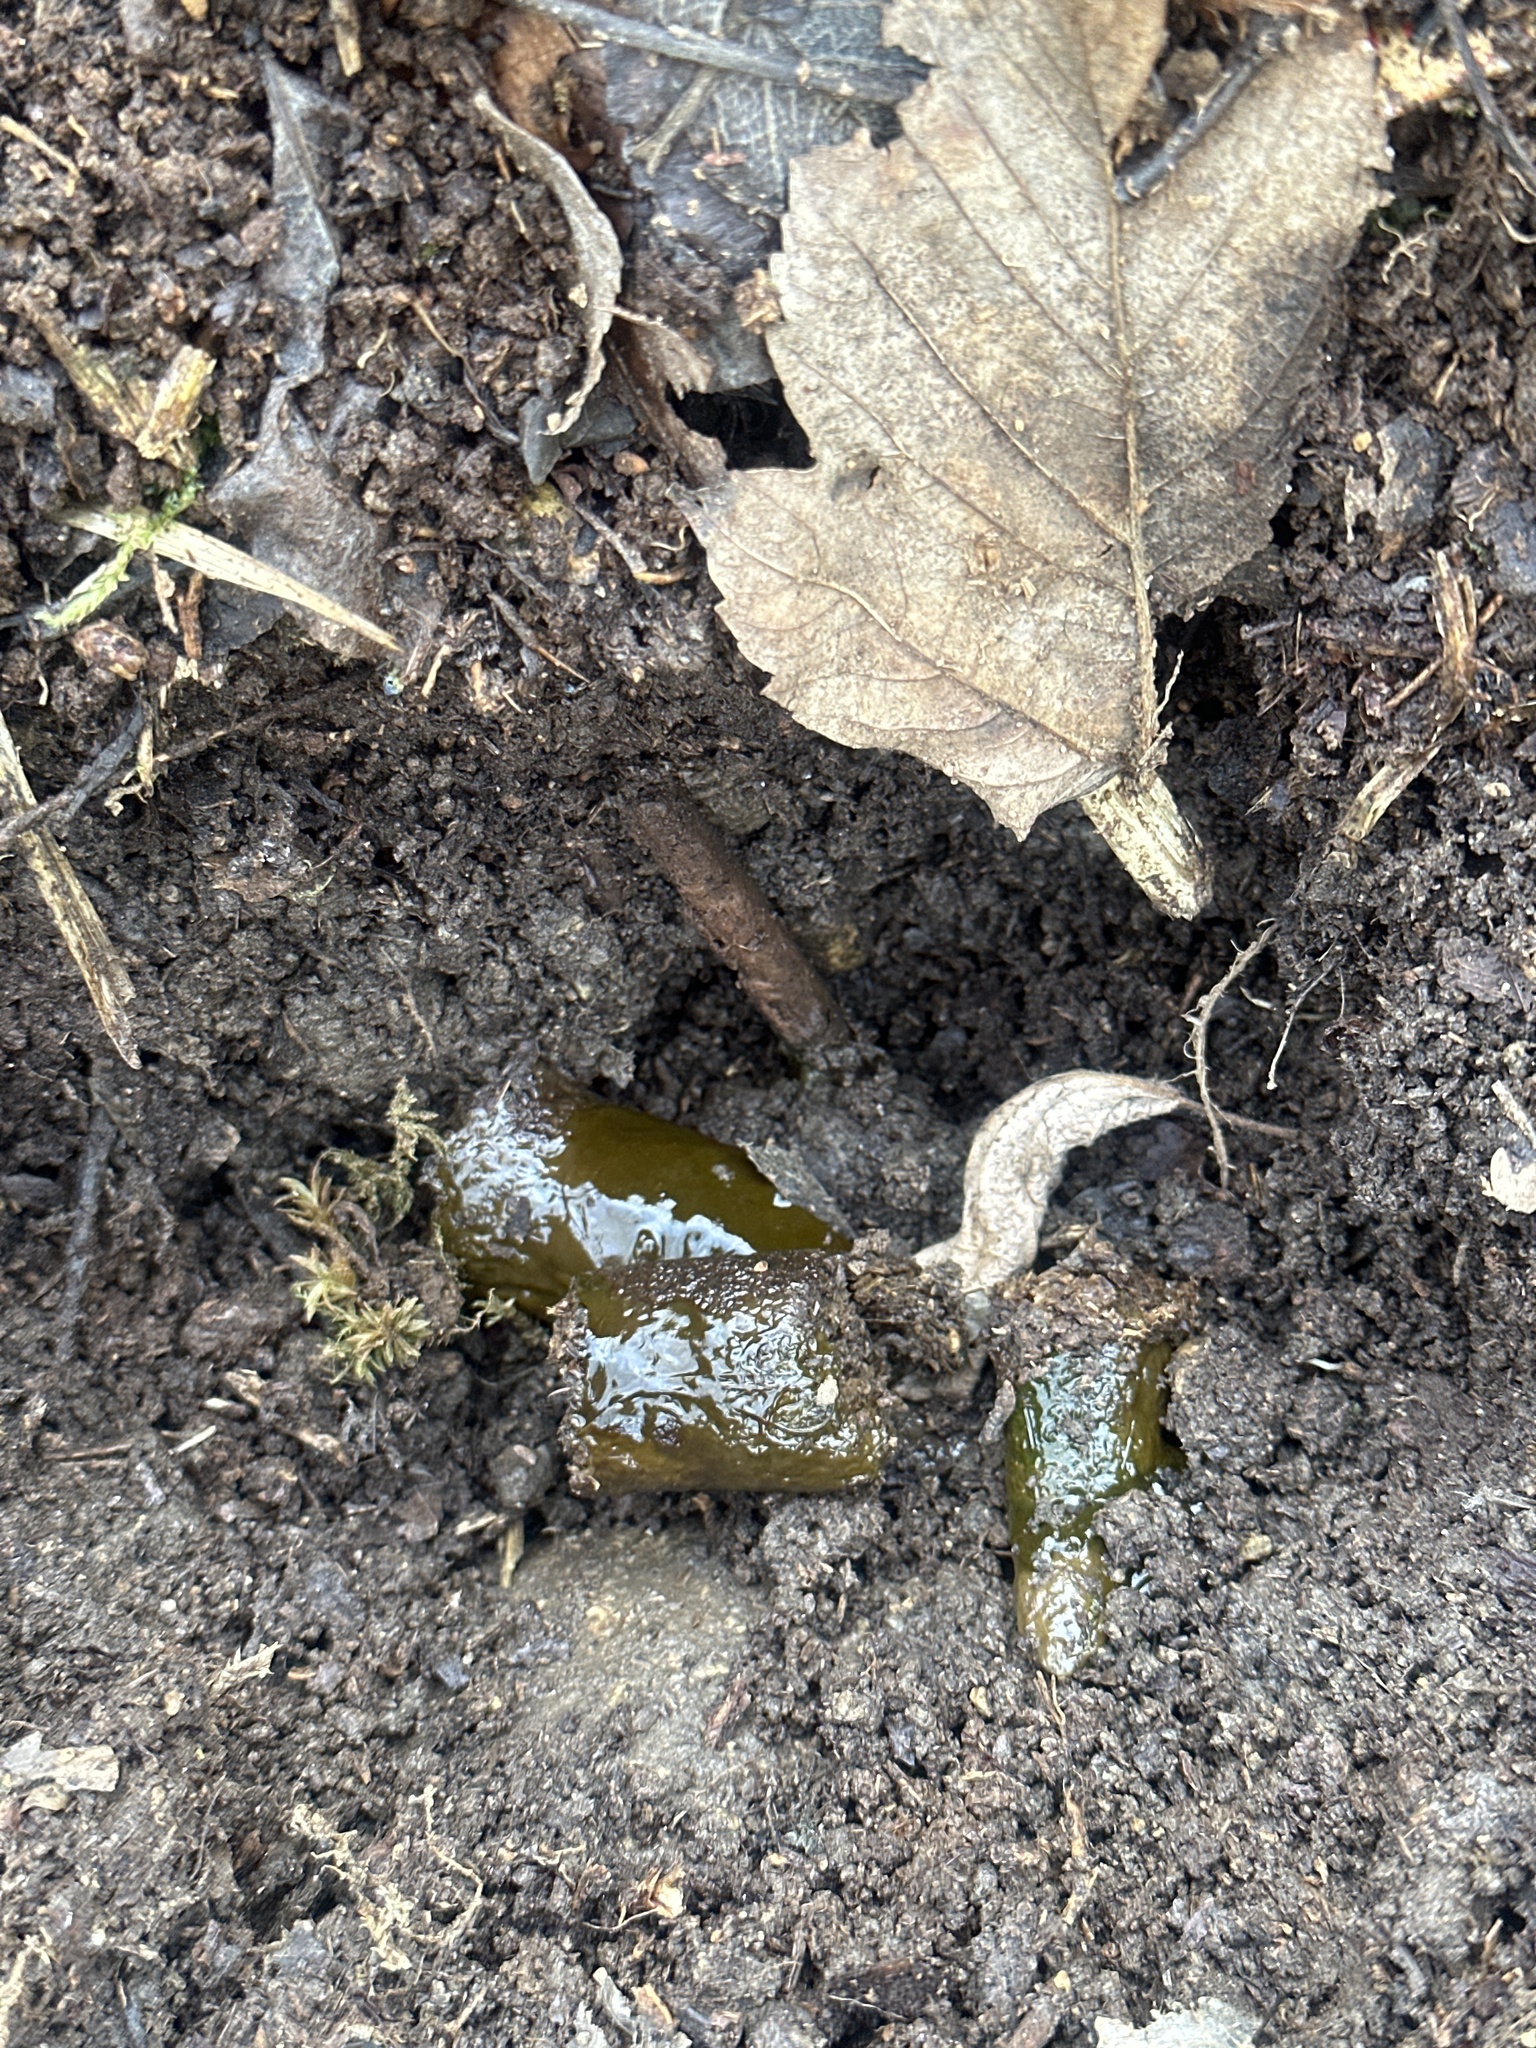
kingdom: Animalia
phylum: Chordata
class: Mammalia
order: Carnivora
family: Mustelidae
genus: Meles
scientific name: Meles meles
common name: Eurasian badger
